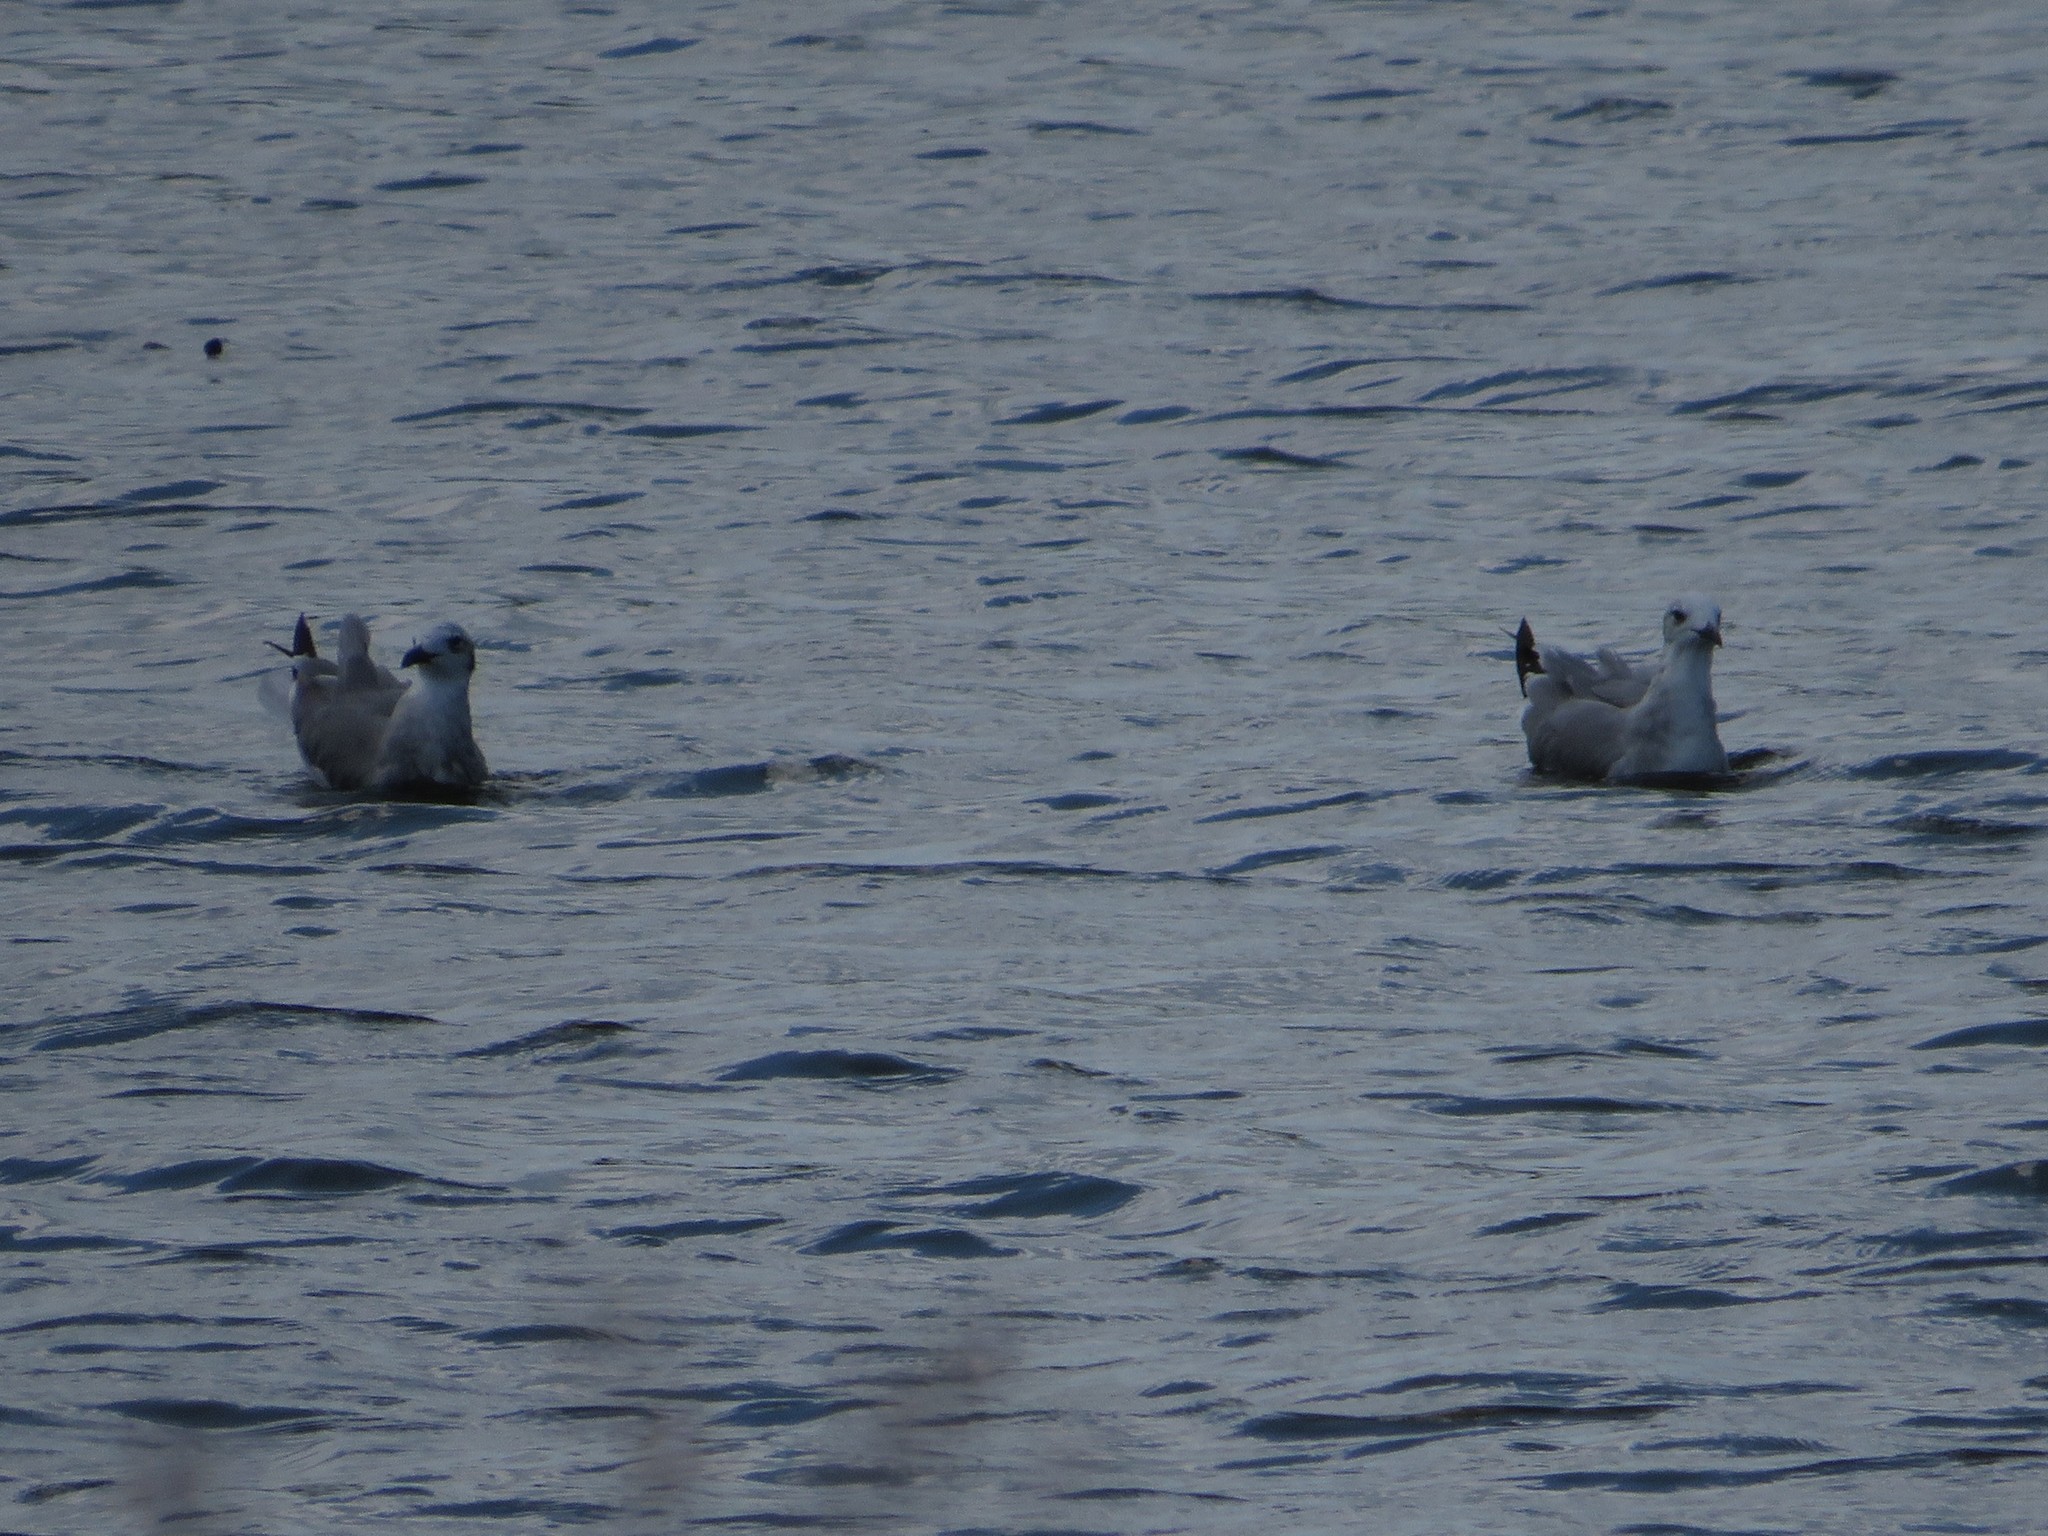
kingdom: Animalia
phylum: Chordata
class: Aves
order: Charadriiformes
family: Laridae
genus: Leucophaeus
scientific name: Leucophaeus atricilla
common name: Laughing gull
